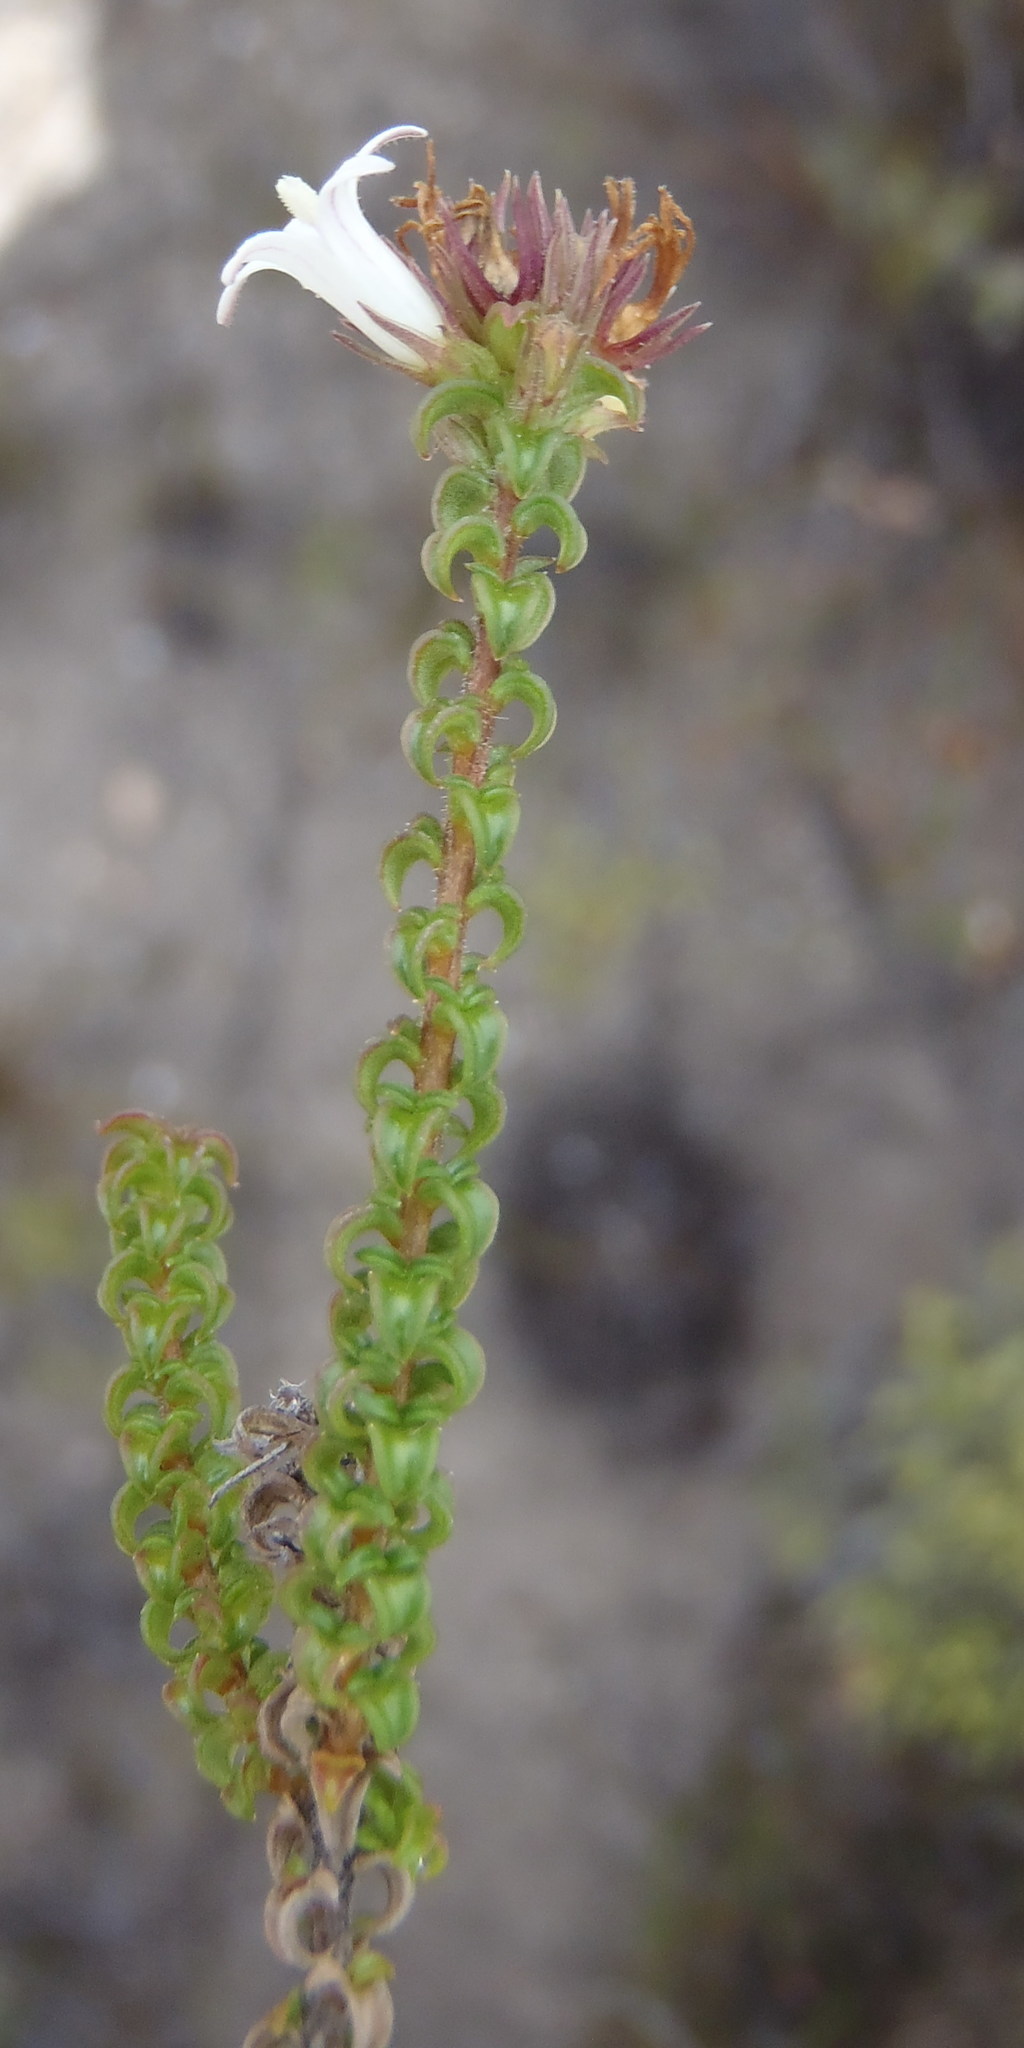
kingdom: Plantae
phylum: Tracheophyta
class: Magnoliopsida
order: Asterales
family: Campanulaceae
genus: Wahlenbergia
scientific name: Wahlenbergia nodosa
